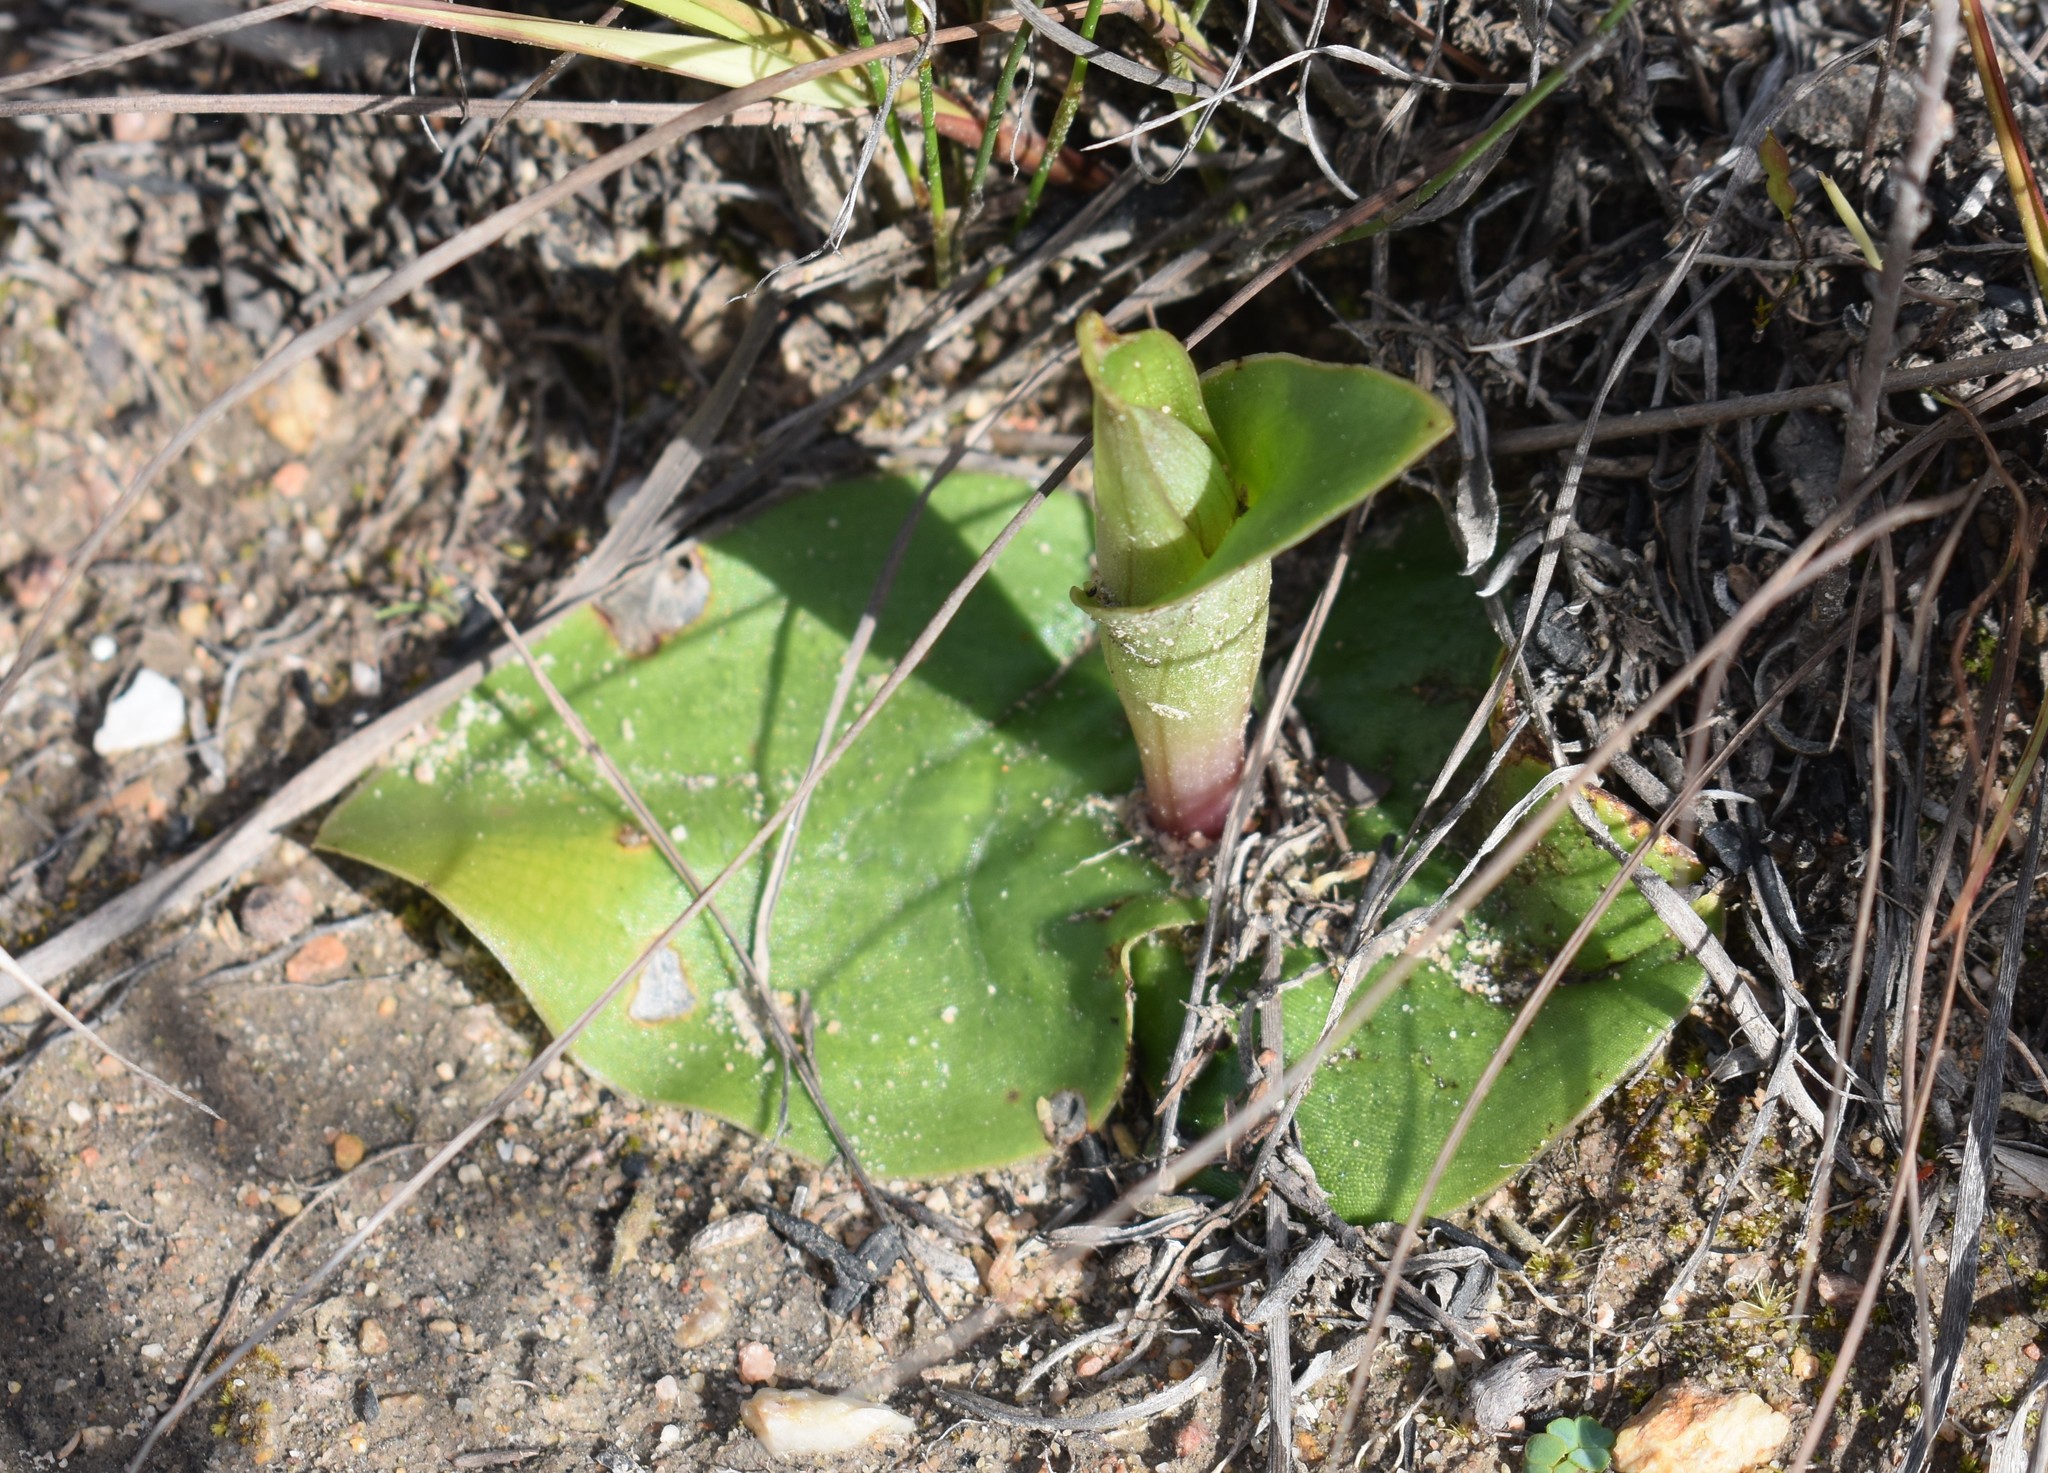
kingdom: Plantae
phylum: Tracheophyta
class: Liliopsida
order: Asparagales
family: Orchidaceae
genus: Satyrium
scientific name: Satyrium erectum
